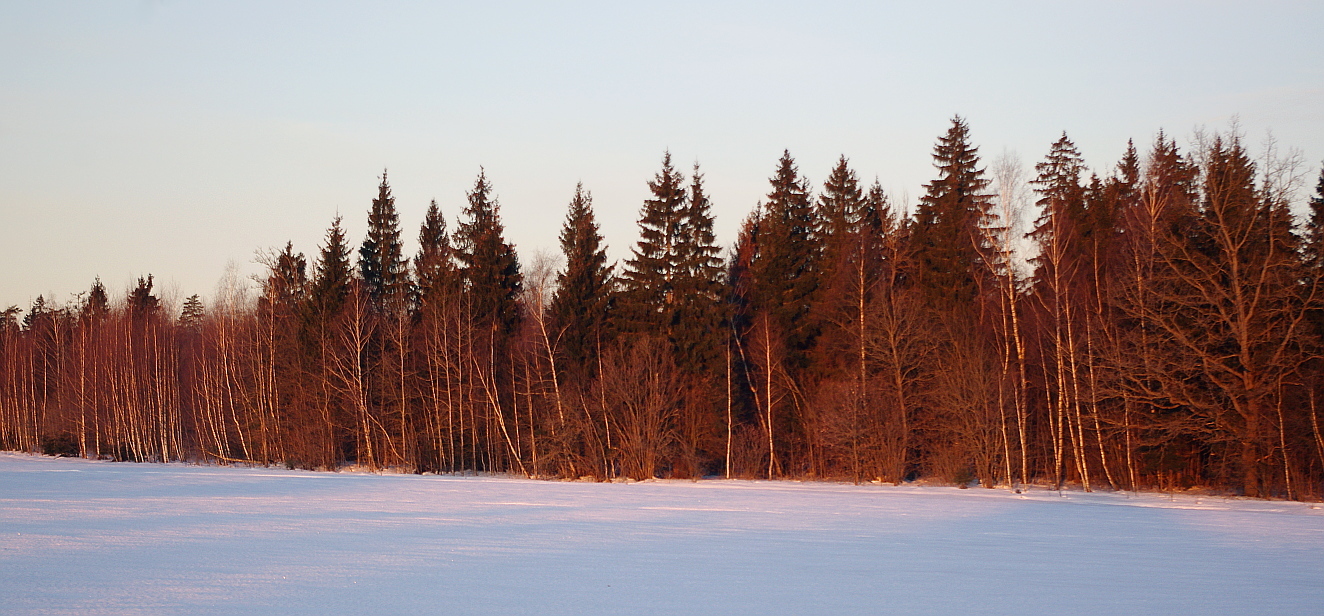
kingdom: Plantae
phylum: Tracheophyta
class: Pinopsida
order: Pinales
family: Pinaceae
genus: Picea
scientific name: Picea abies
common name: Norway spruce
